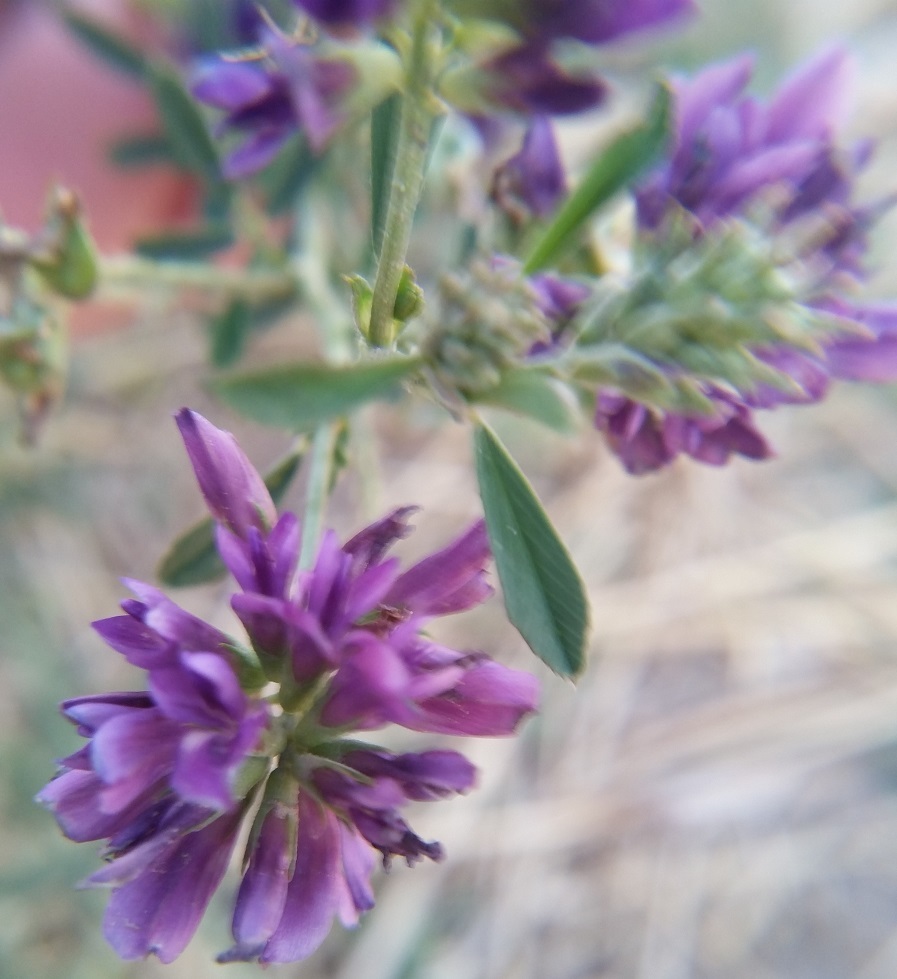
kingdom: Plantae
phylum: Tracheophyta
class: Magnoliopsida
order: Fabales
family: Fabaceae
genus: Medicago
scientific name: Medicago sativa
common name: Alfalfa
